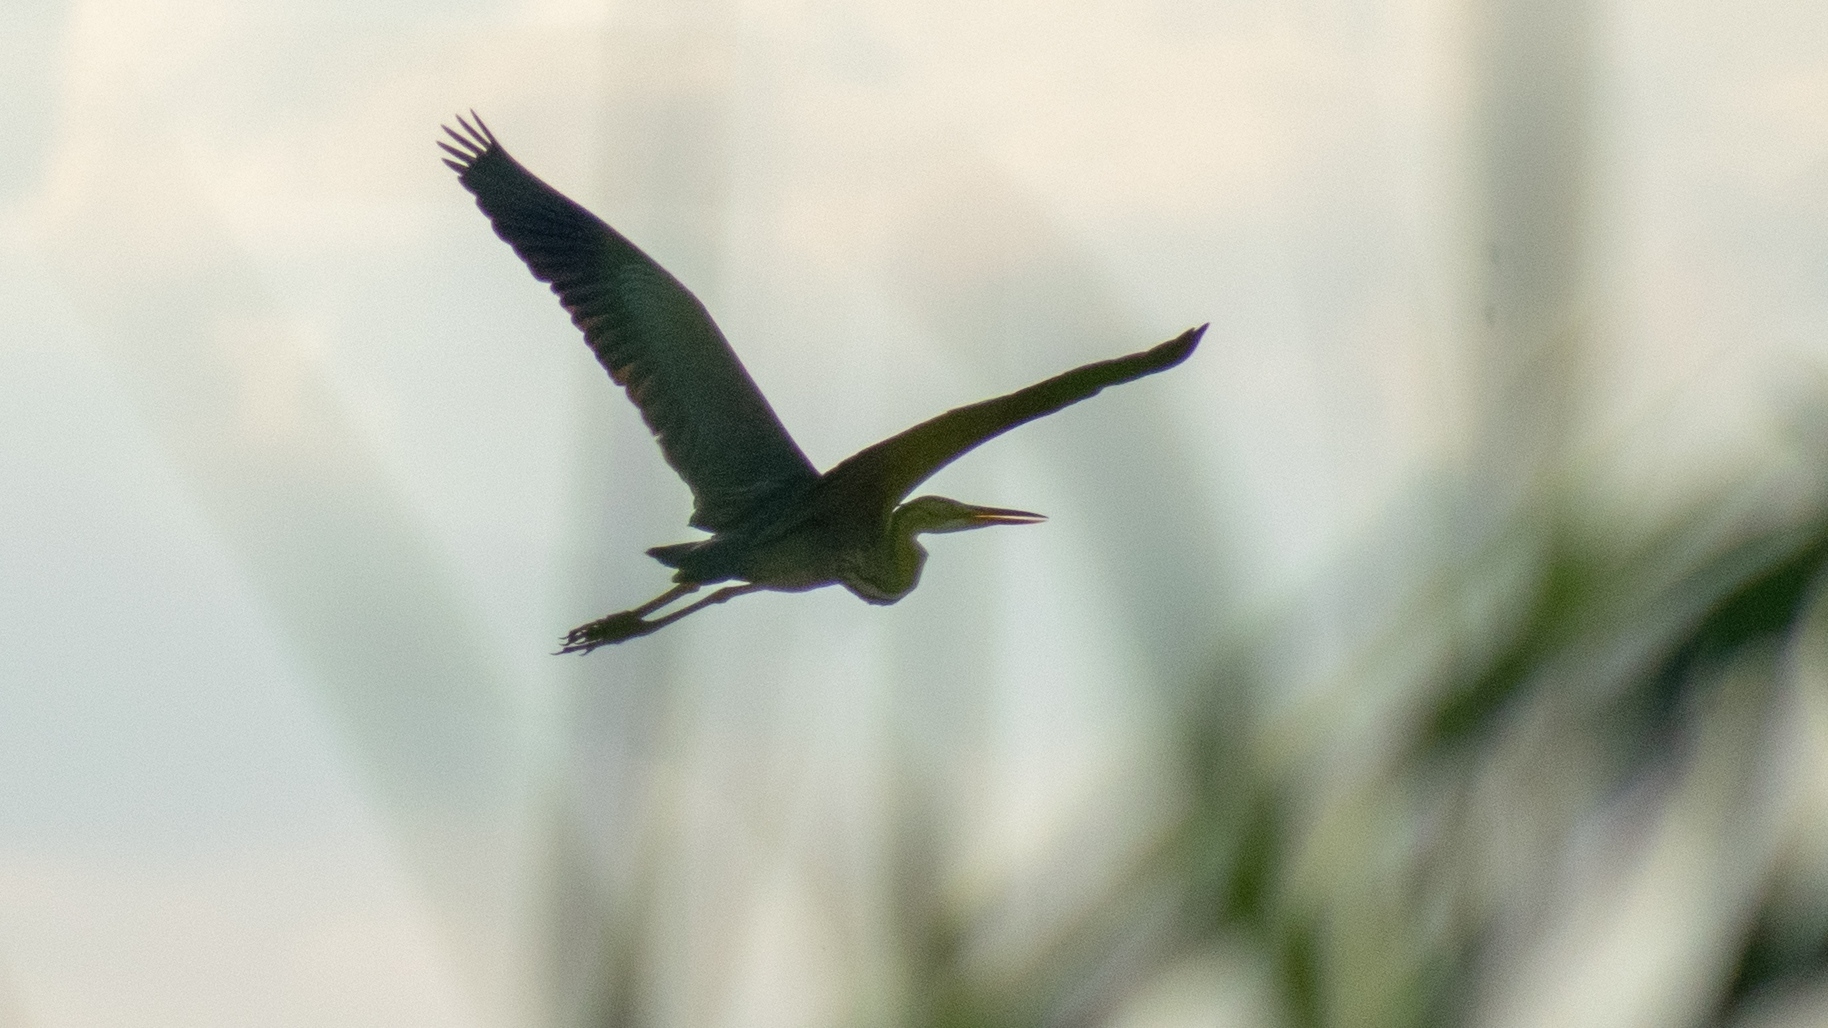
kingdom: Animalia
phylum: Chordata
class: Aves
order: Pelecaniformes
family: Ardeidae
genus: Ardea
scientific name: Ardea purpurea
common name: Purple heron
